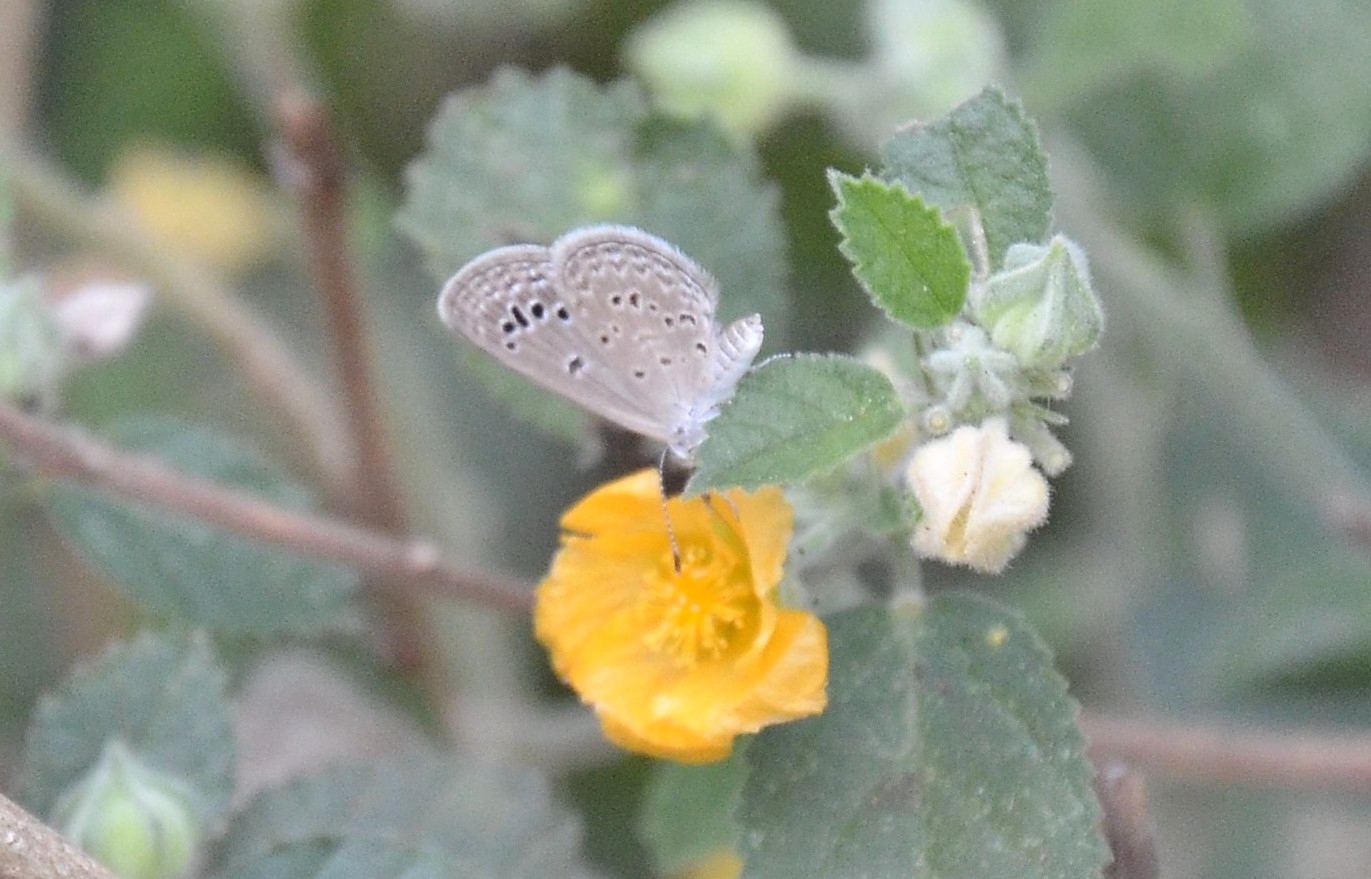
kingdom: Animalia
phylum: Arthropoda
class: Insecta
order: Lepidoptera
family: Lycaenidae
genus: Zizina
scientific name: Zizina otis
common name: Lesser grass blue
